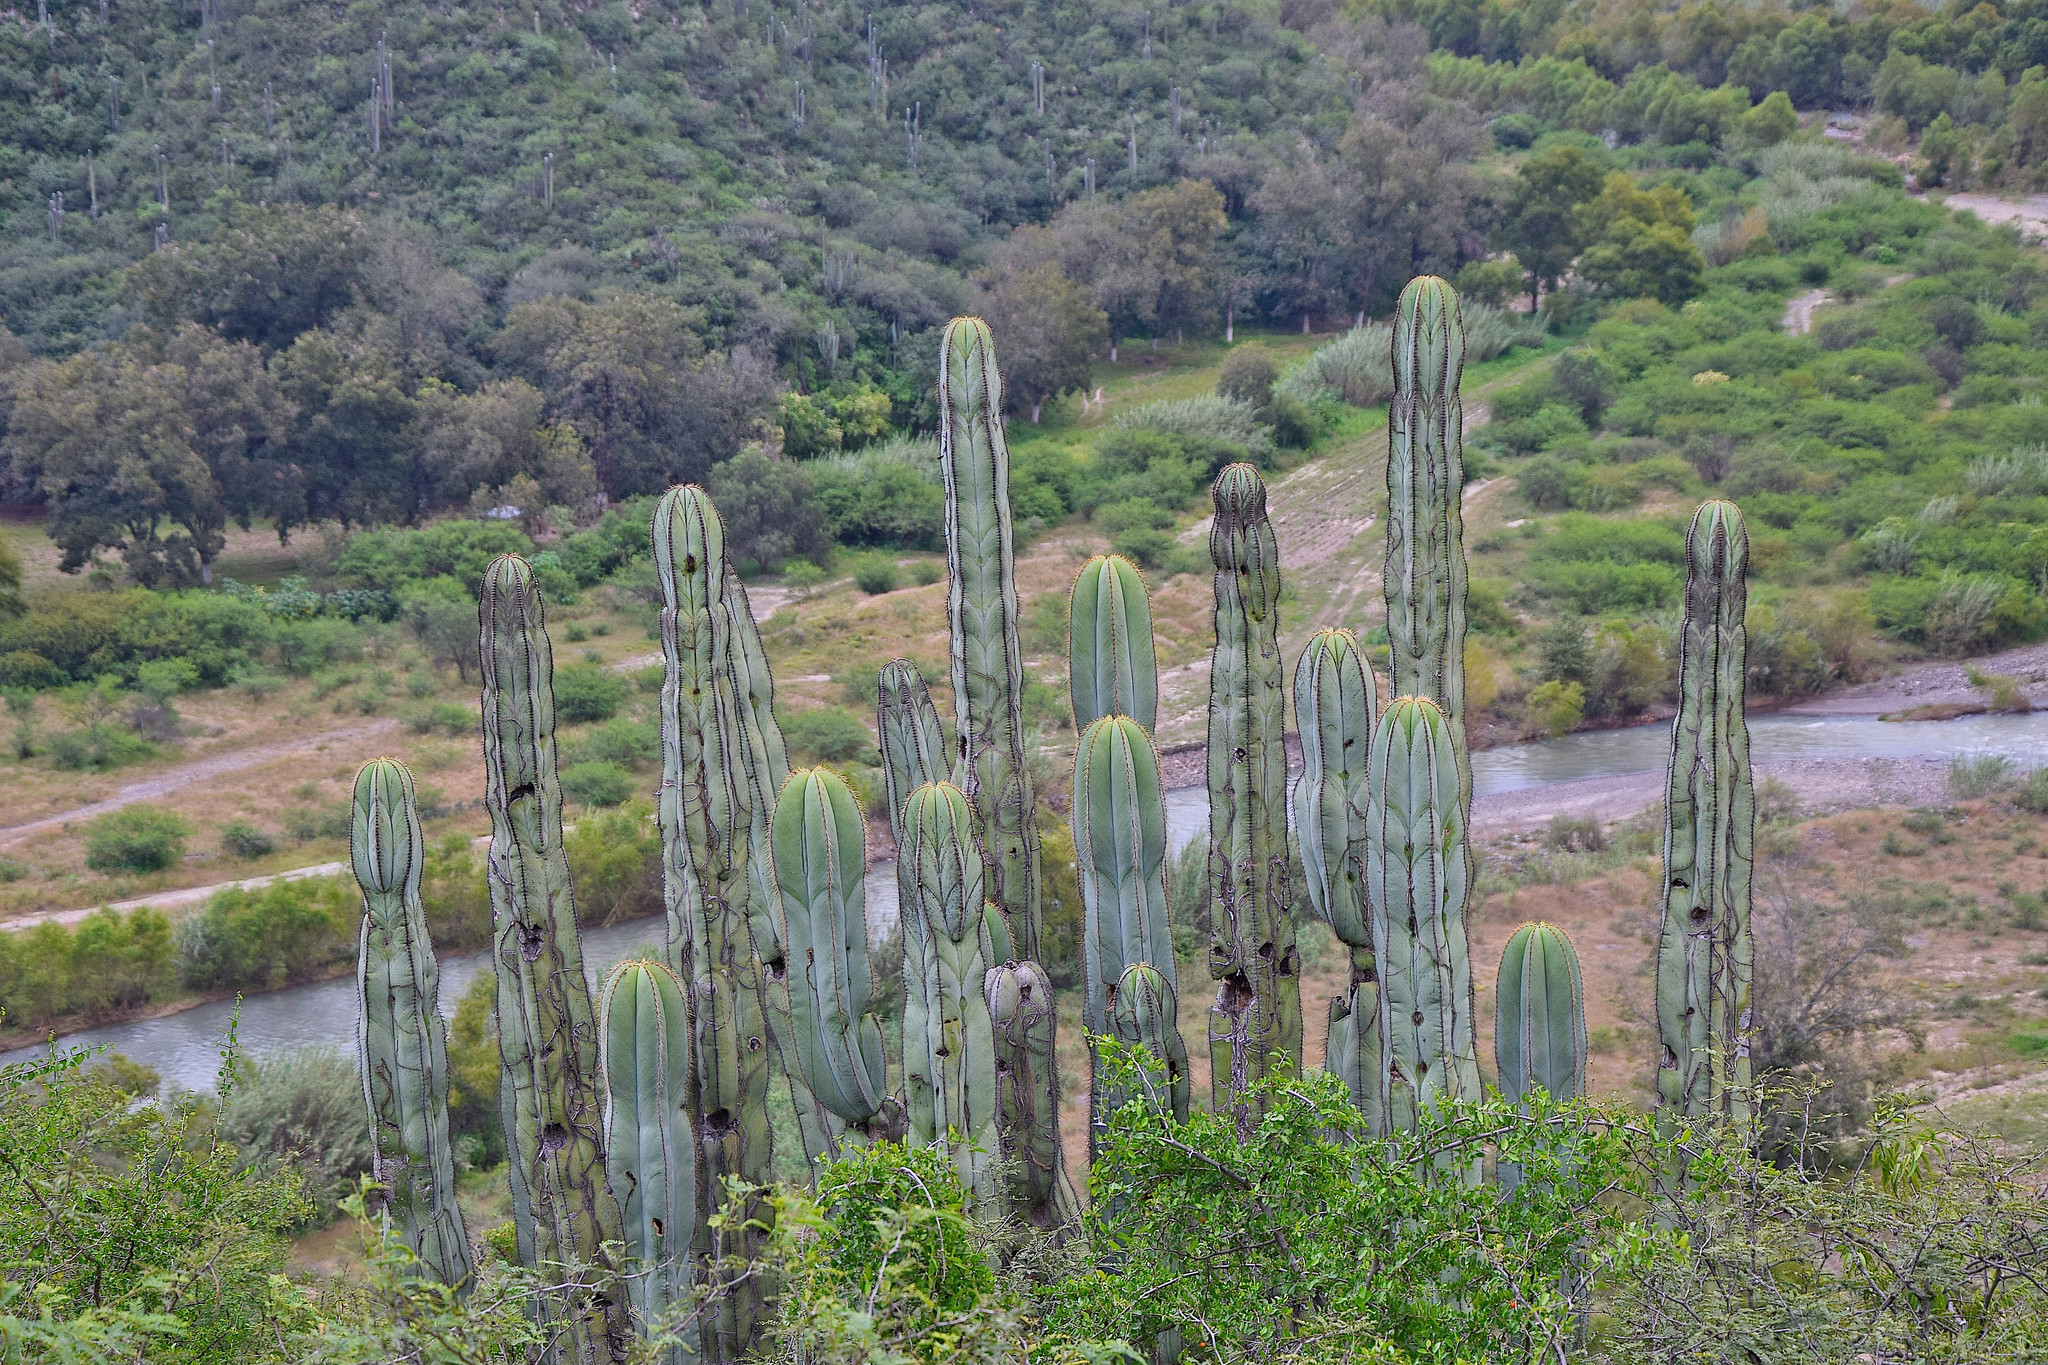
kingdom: Plantae
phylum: Tracheophyta
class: Magnoliopsida
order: Caryophyllales
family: Cactaceae
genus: Stenocereus
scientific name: Stenocereus dumortieri
